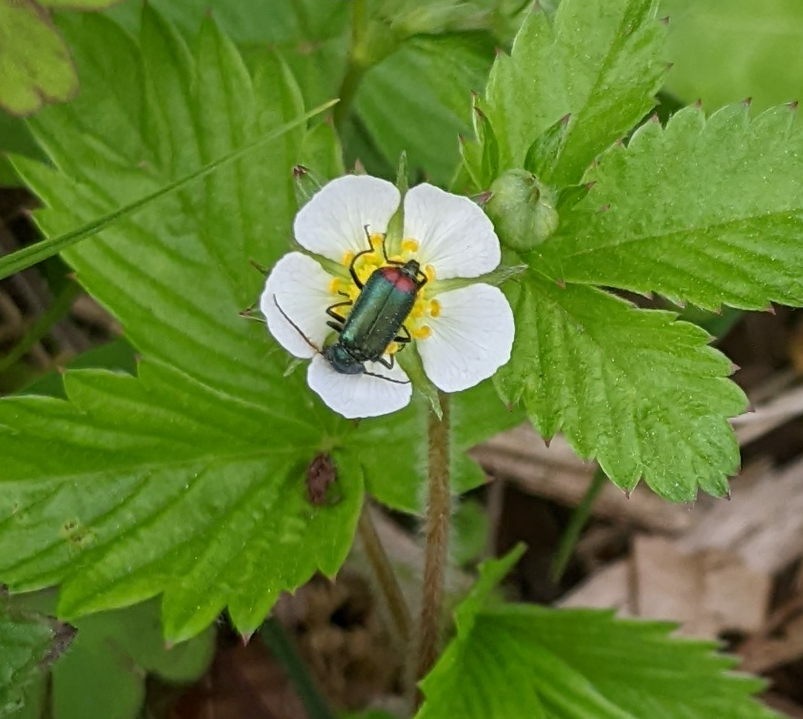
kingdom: Animalia
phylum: Arthropoda
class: Insecta
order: Coleoptera
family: Melyridae
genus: Malachius
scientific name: Malachius bipustulatus
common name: Malachite beetle
